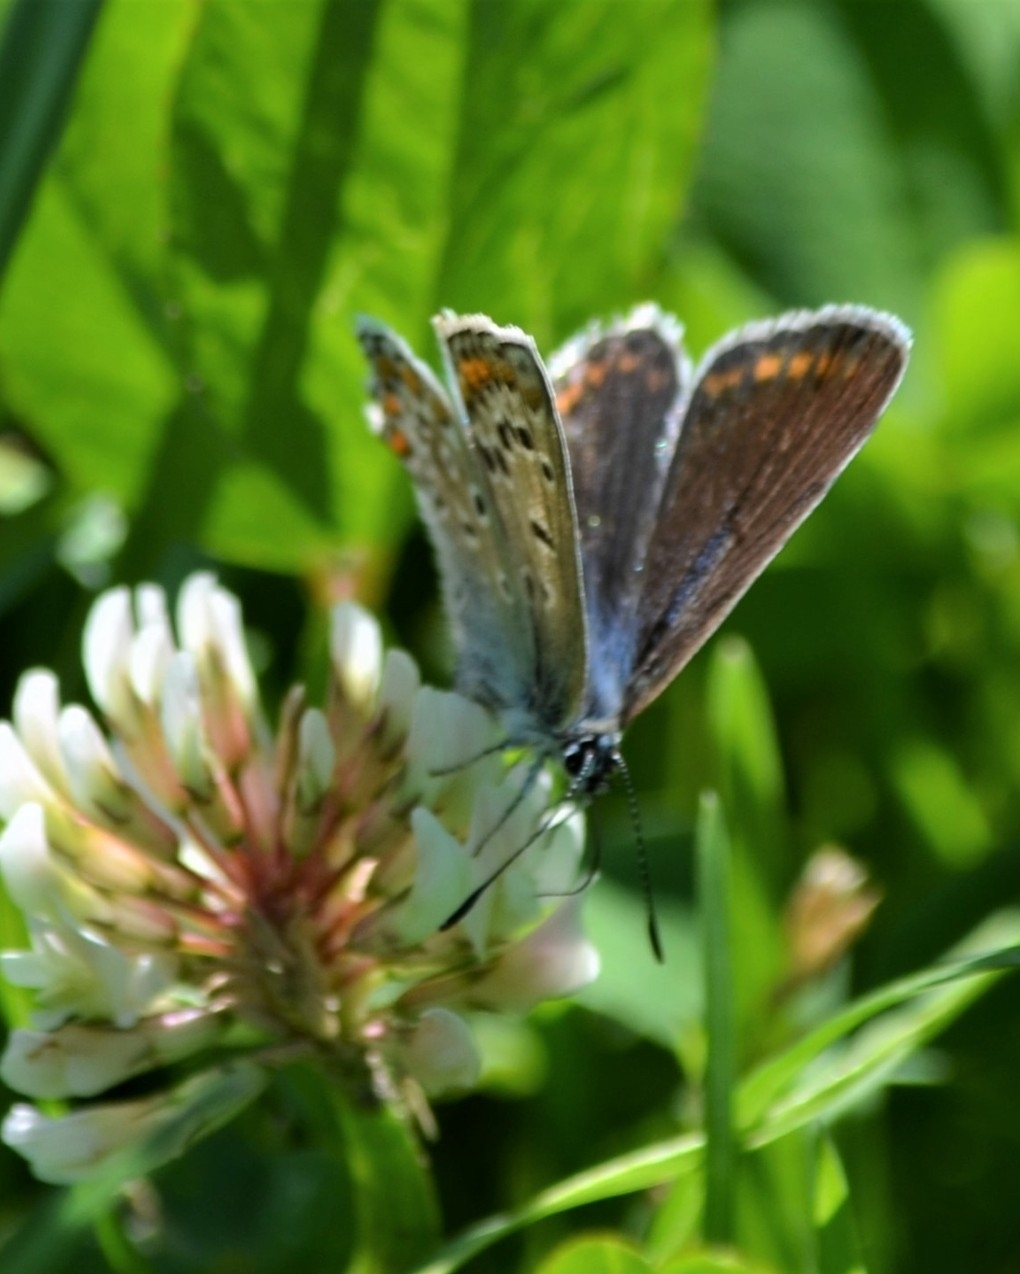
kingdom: Animalia
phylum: Arthropoda
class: Insecta
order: Lepidoptera
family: Lycaenidae
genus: Polyommatus
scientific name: Polyommatus icarus
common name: Common blue
